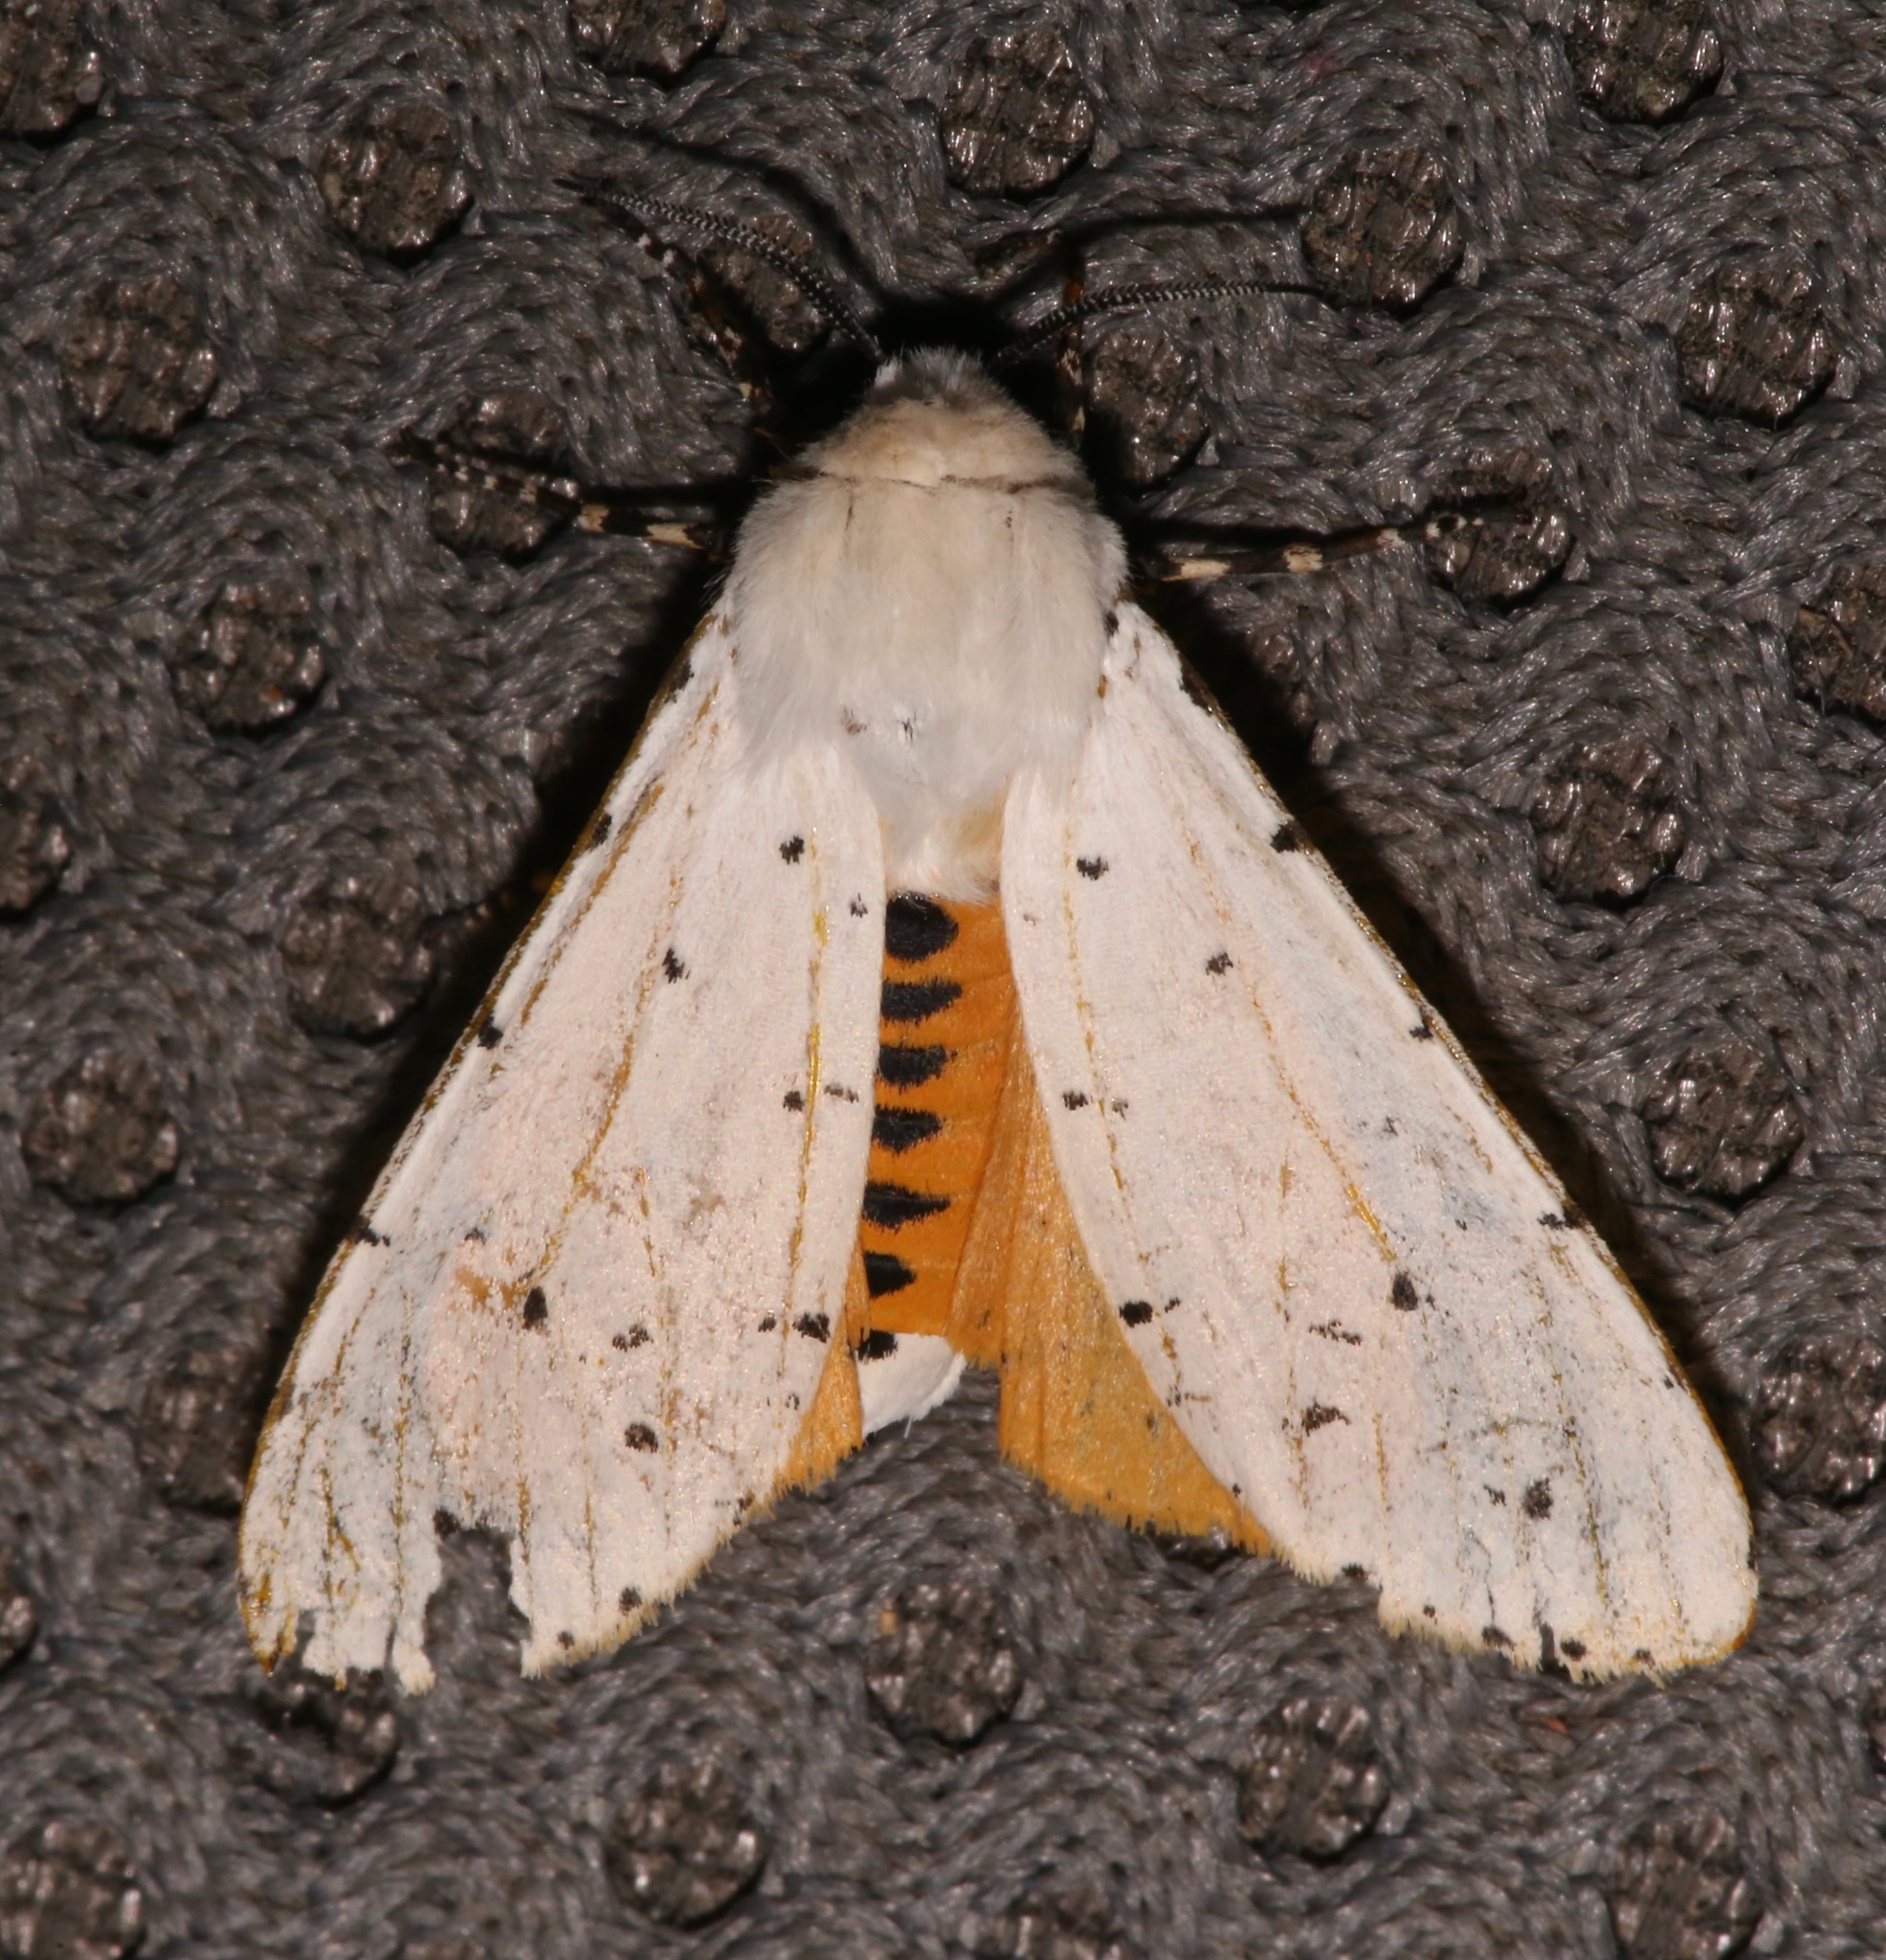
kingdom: Animalia
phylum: Arthropoda
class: Insecta
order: Lepidoptera
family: Erebidae
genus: Estigmene
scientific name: Estigmene acrea
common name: Salt marsh moth
